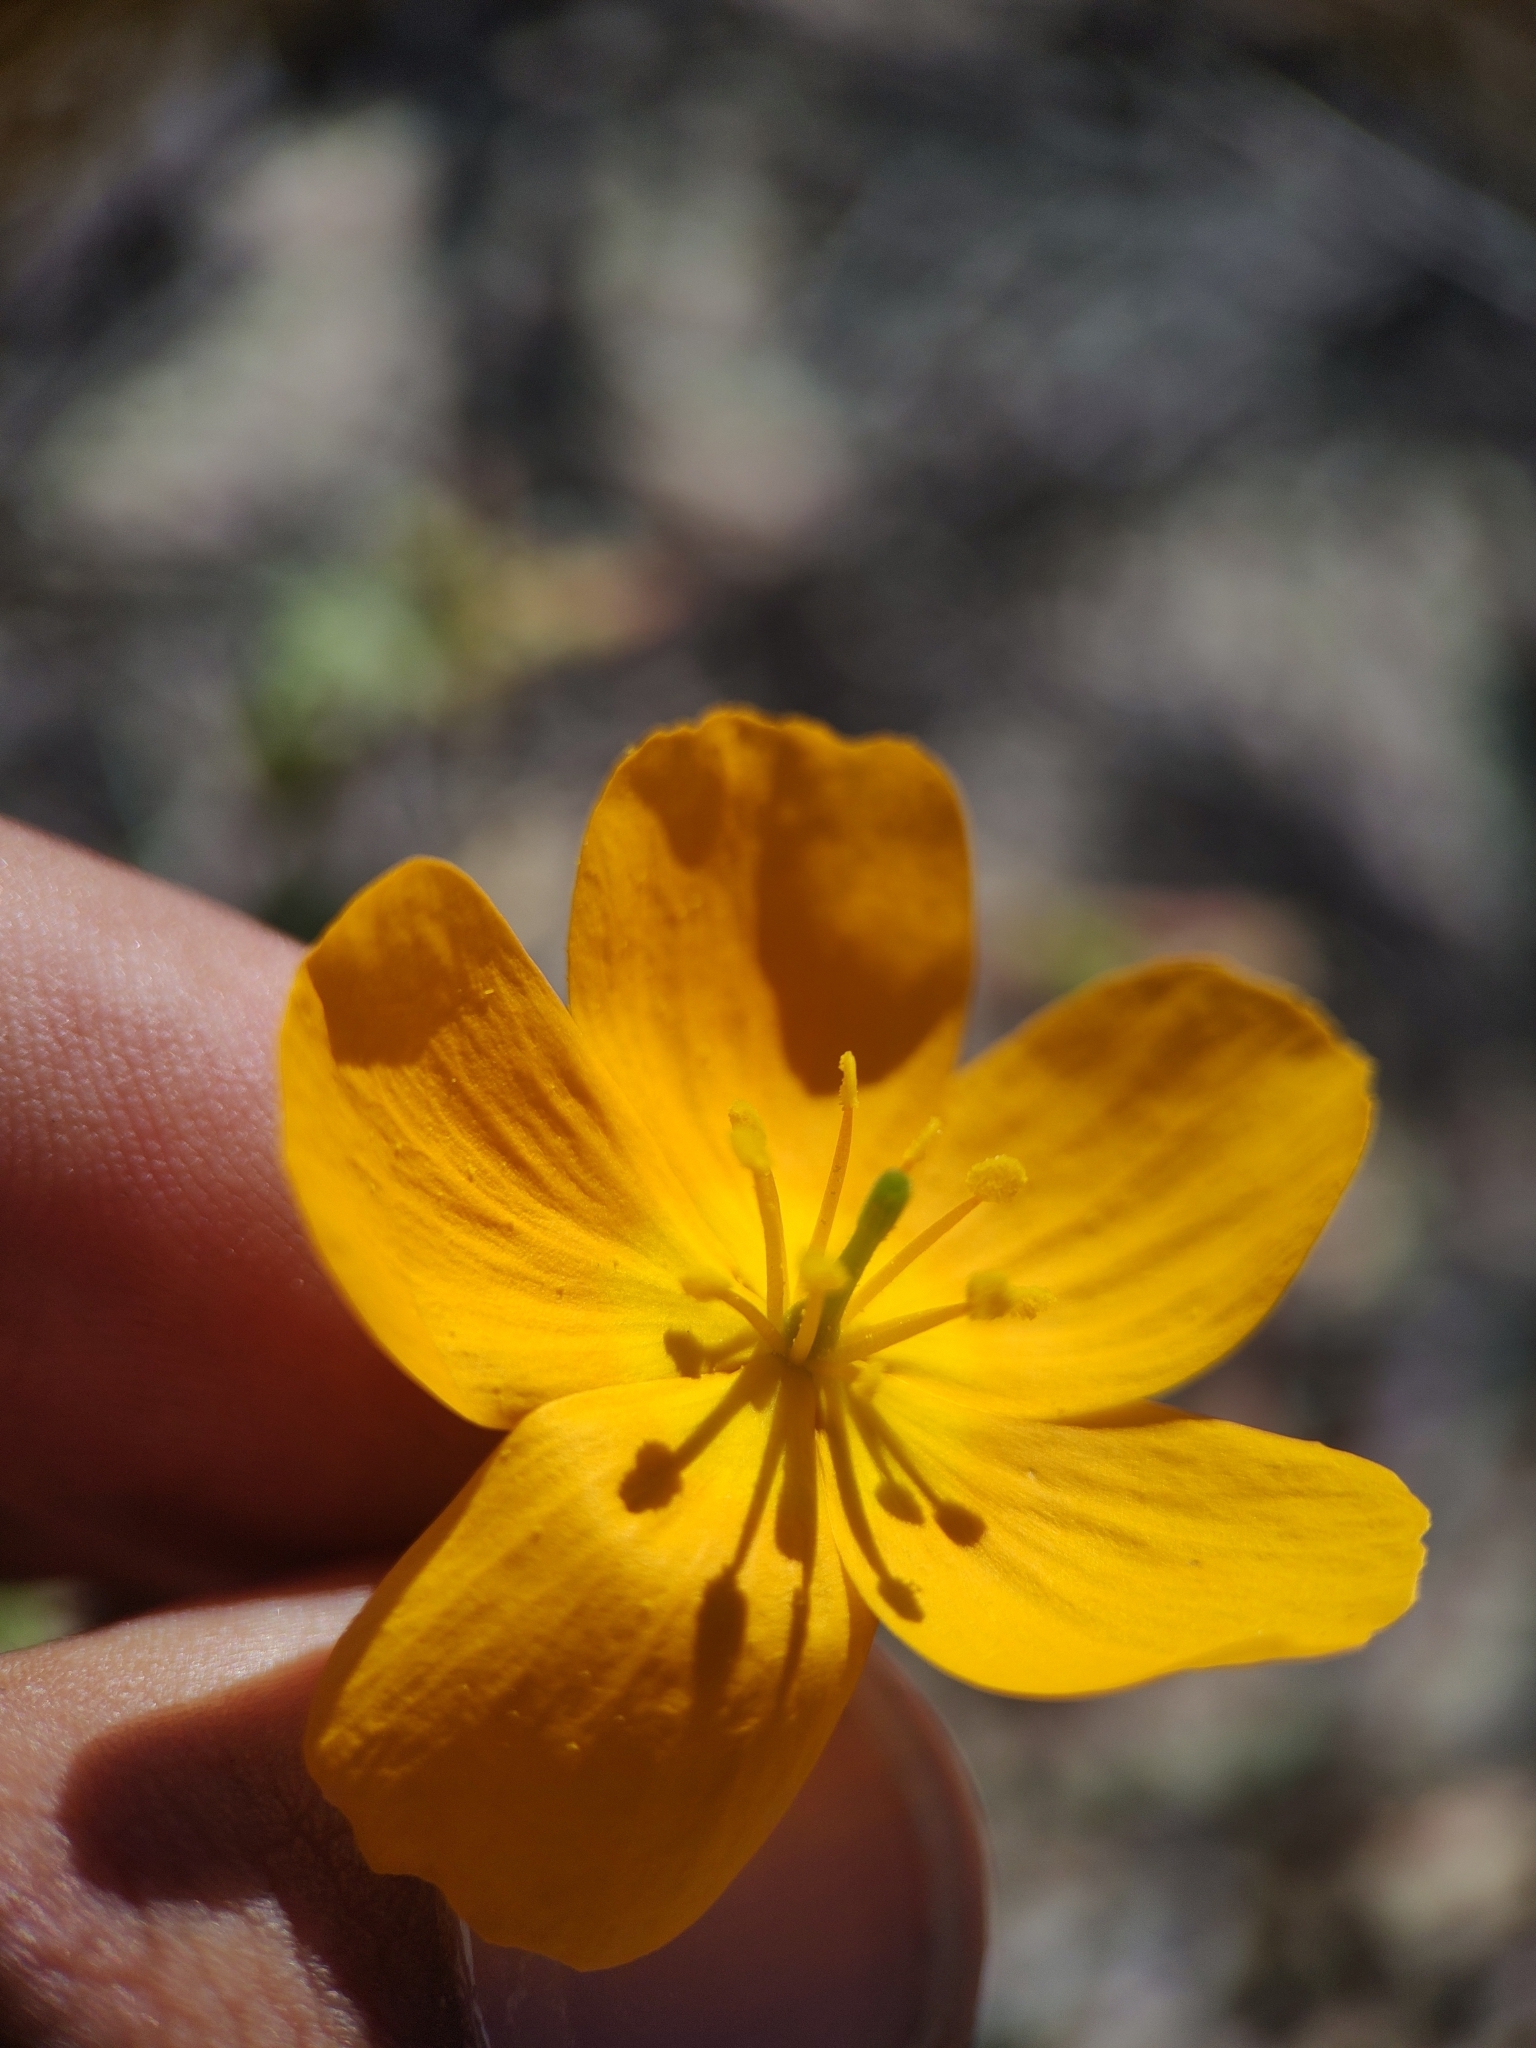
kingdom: Plantae
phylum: Tracheophyta
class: Magnoliopsida
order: Zygophyllales
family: Zygophyllaceae
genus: Kallstroemia
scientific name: Kallstroemia peninsularis
